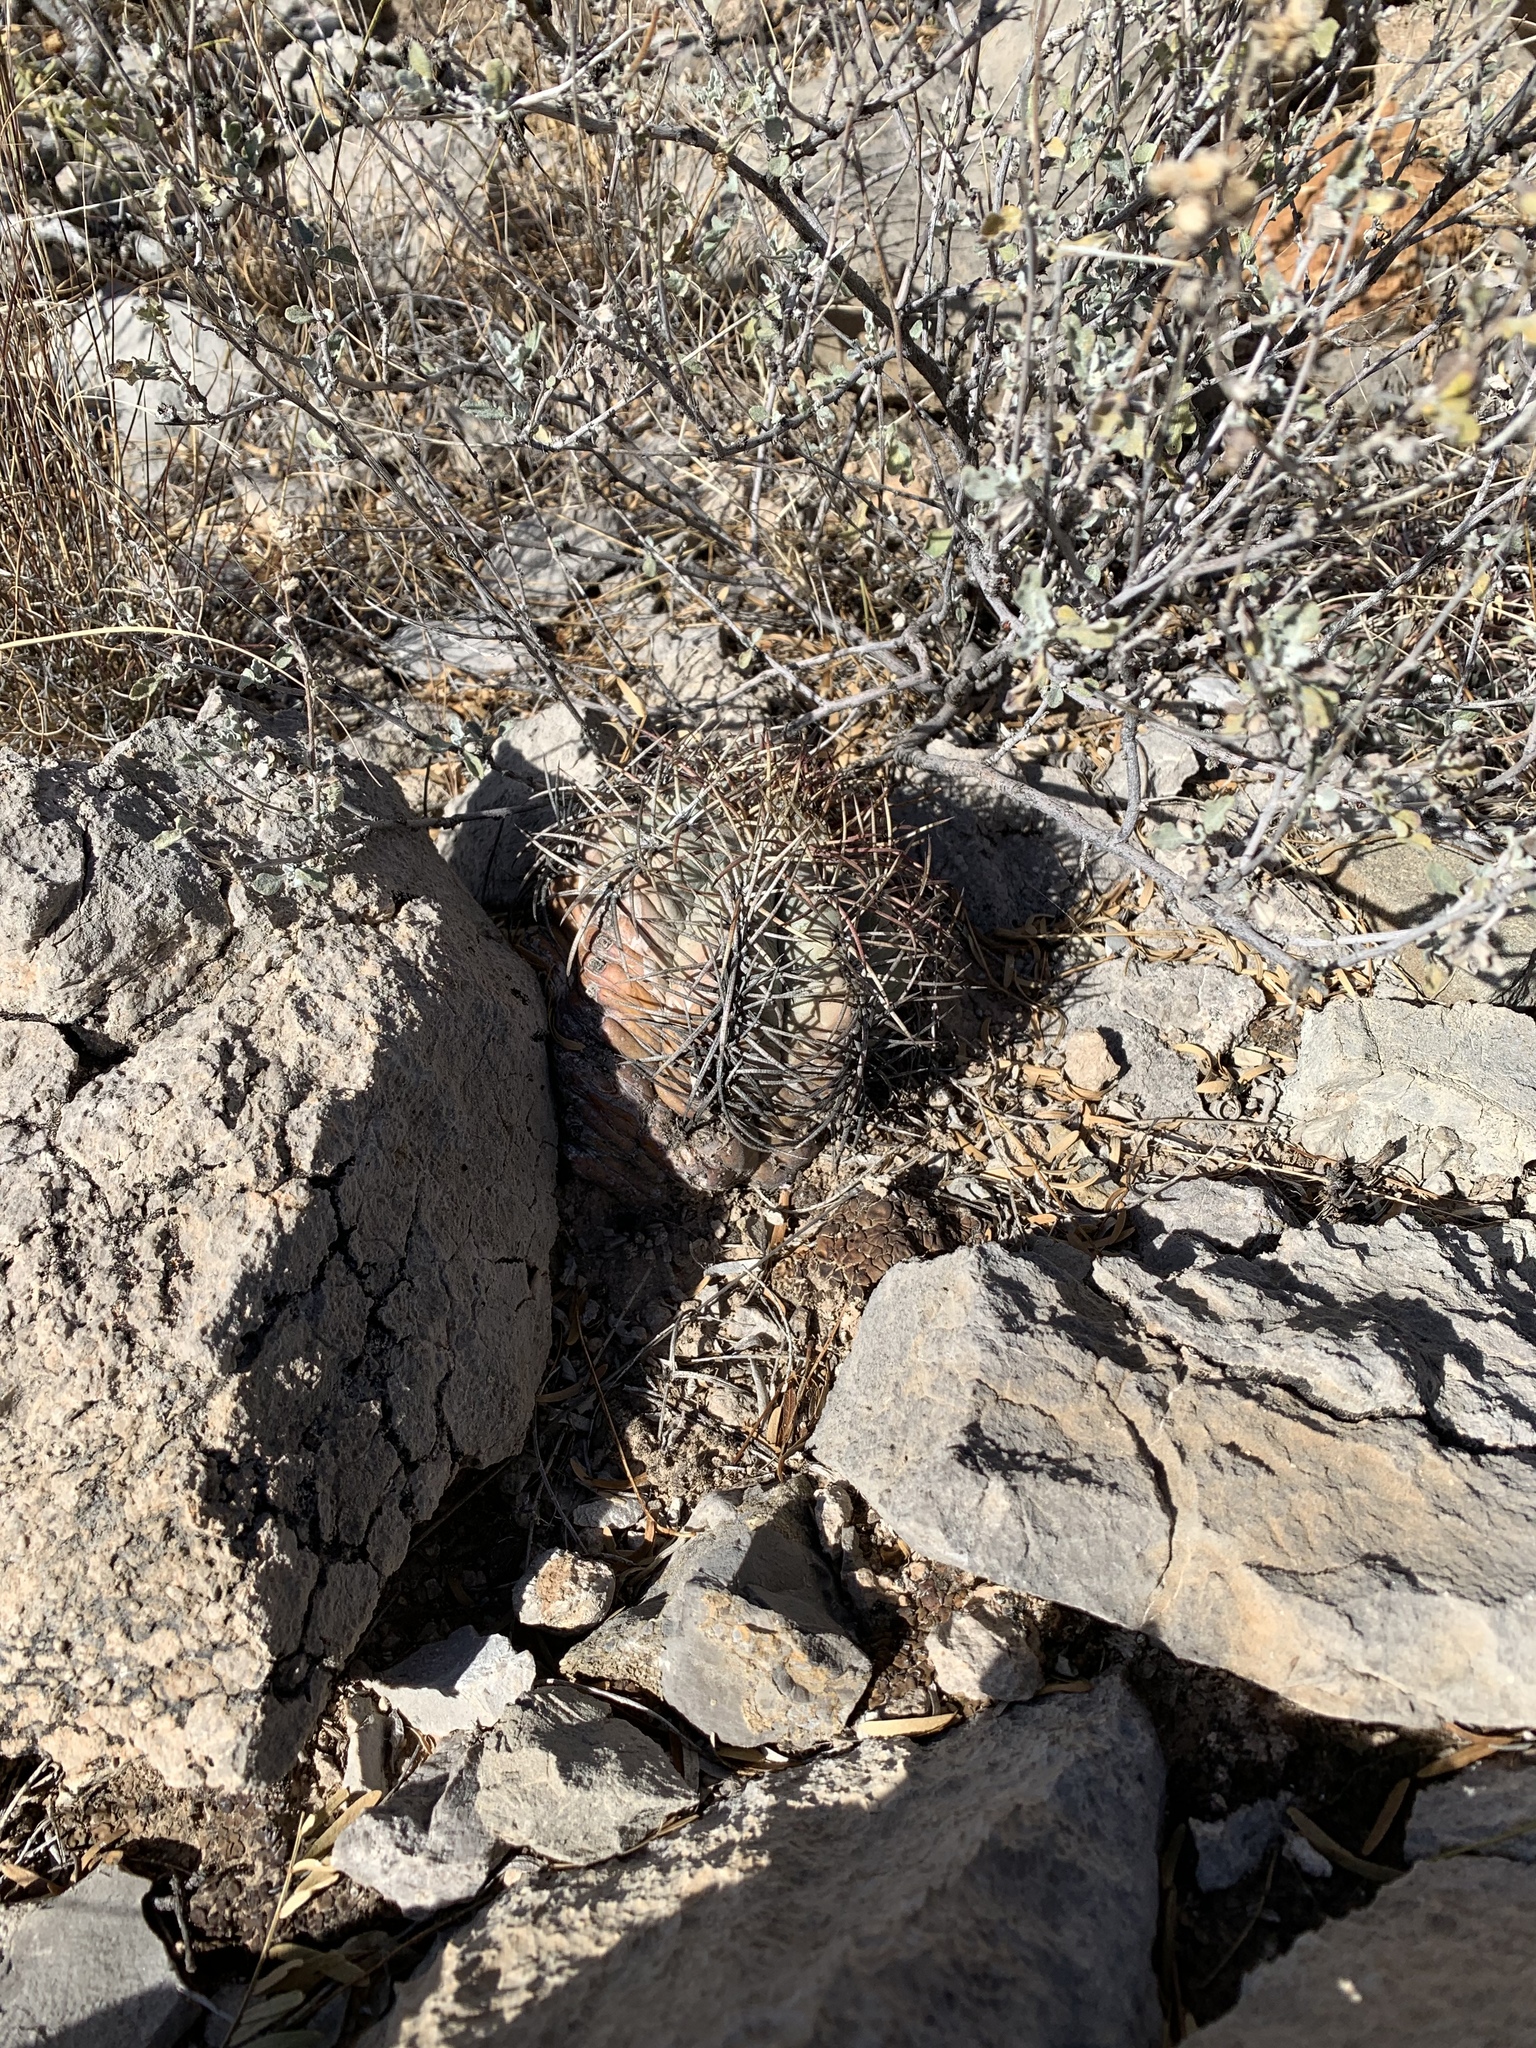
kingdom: Plantae
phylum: Tracheophyta
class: Magnoliopsida
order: Caryophyllales
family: Cactaceae
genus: Echinocactus
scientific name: Echinocactus horizonthalonius
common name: Devilshead
